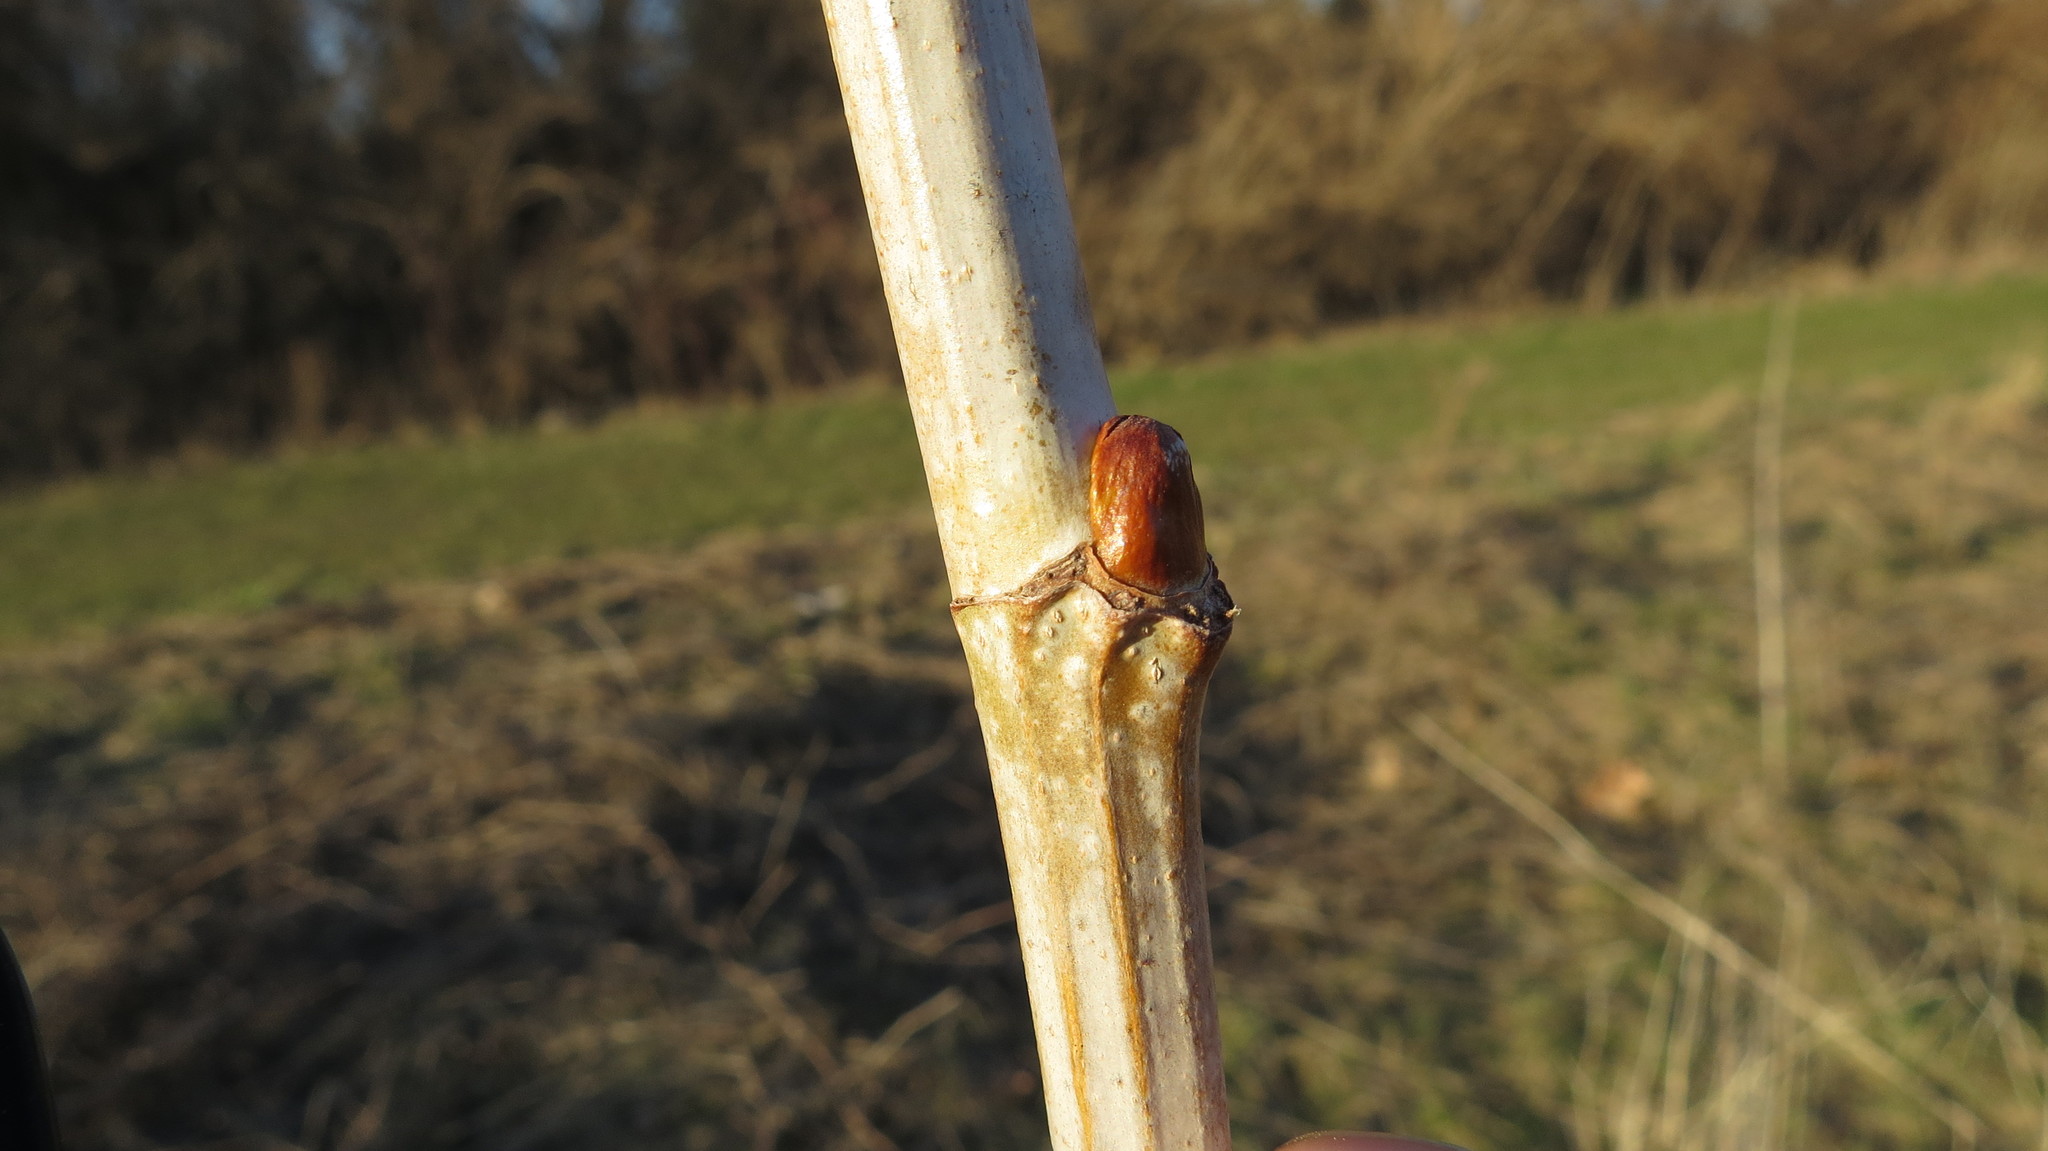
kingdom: Plantae
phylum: Tracheophyta
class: Magnoliopsida
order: Proteales
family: Platanaceae
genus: Platanus
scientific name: Platanus occidentalis
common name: American sycamore
